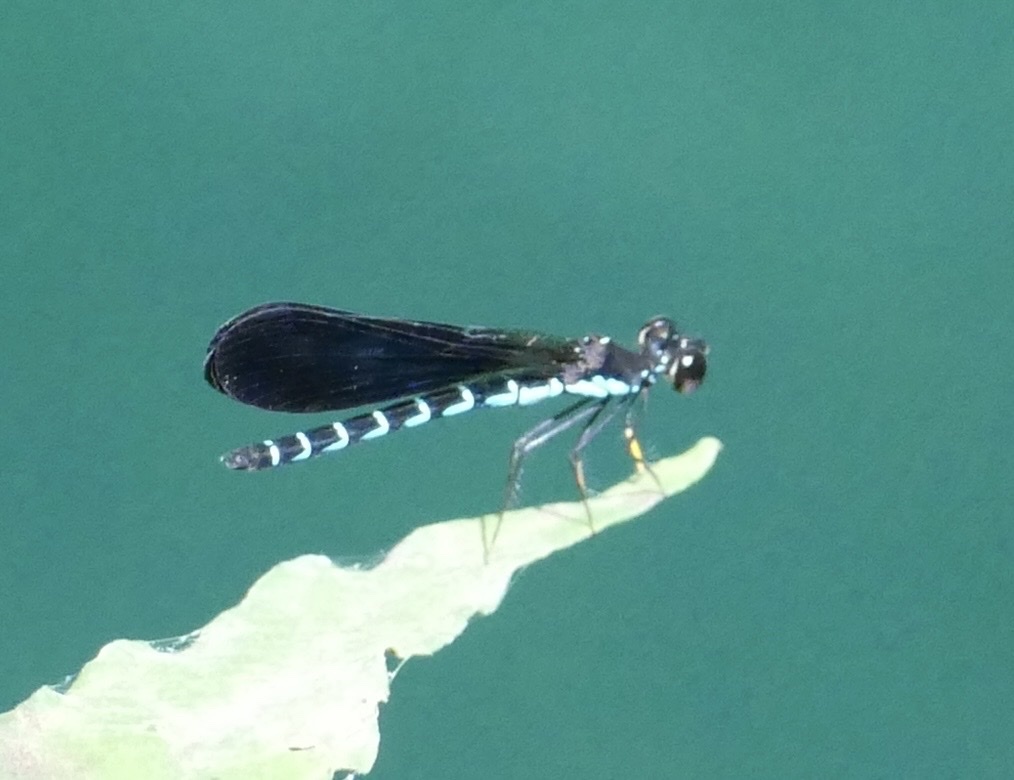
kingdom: Animalia
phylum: Arthropoda
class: Insecta
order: Odonata
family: Chlorocyphidae
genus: Rhinocypha
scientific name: Rhinocypha tincta
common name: Papuan jewel
